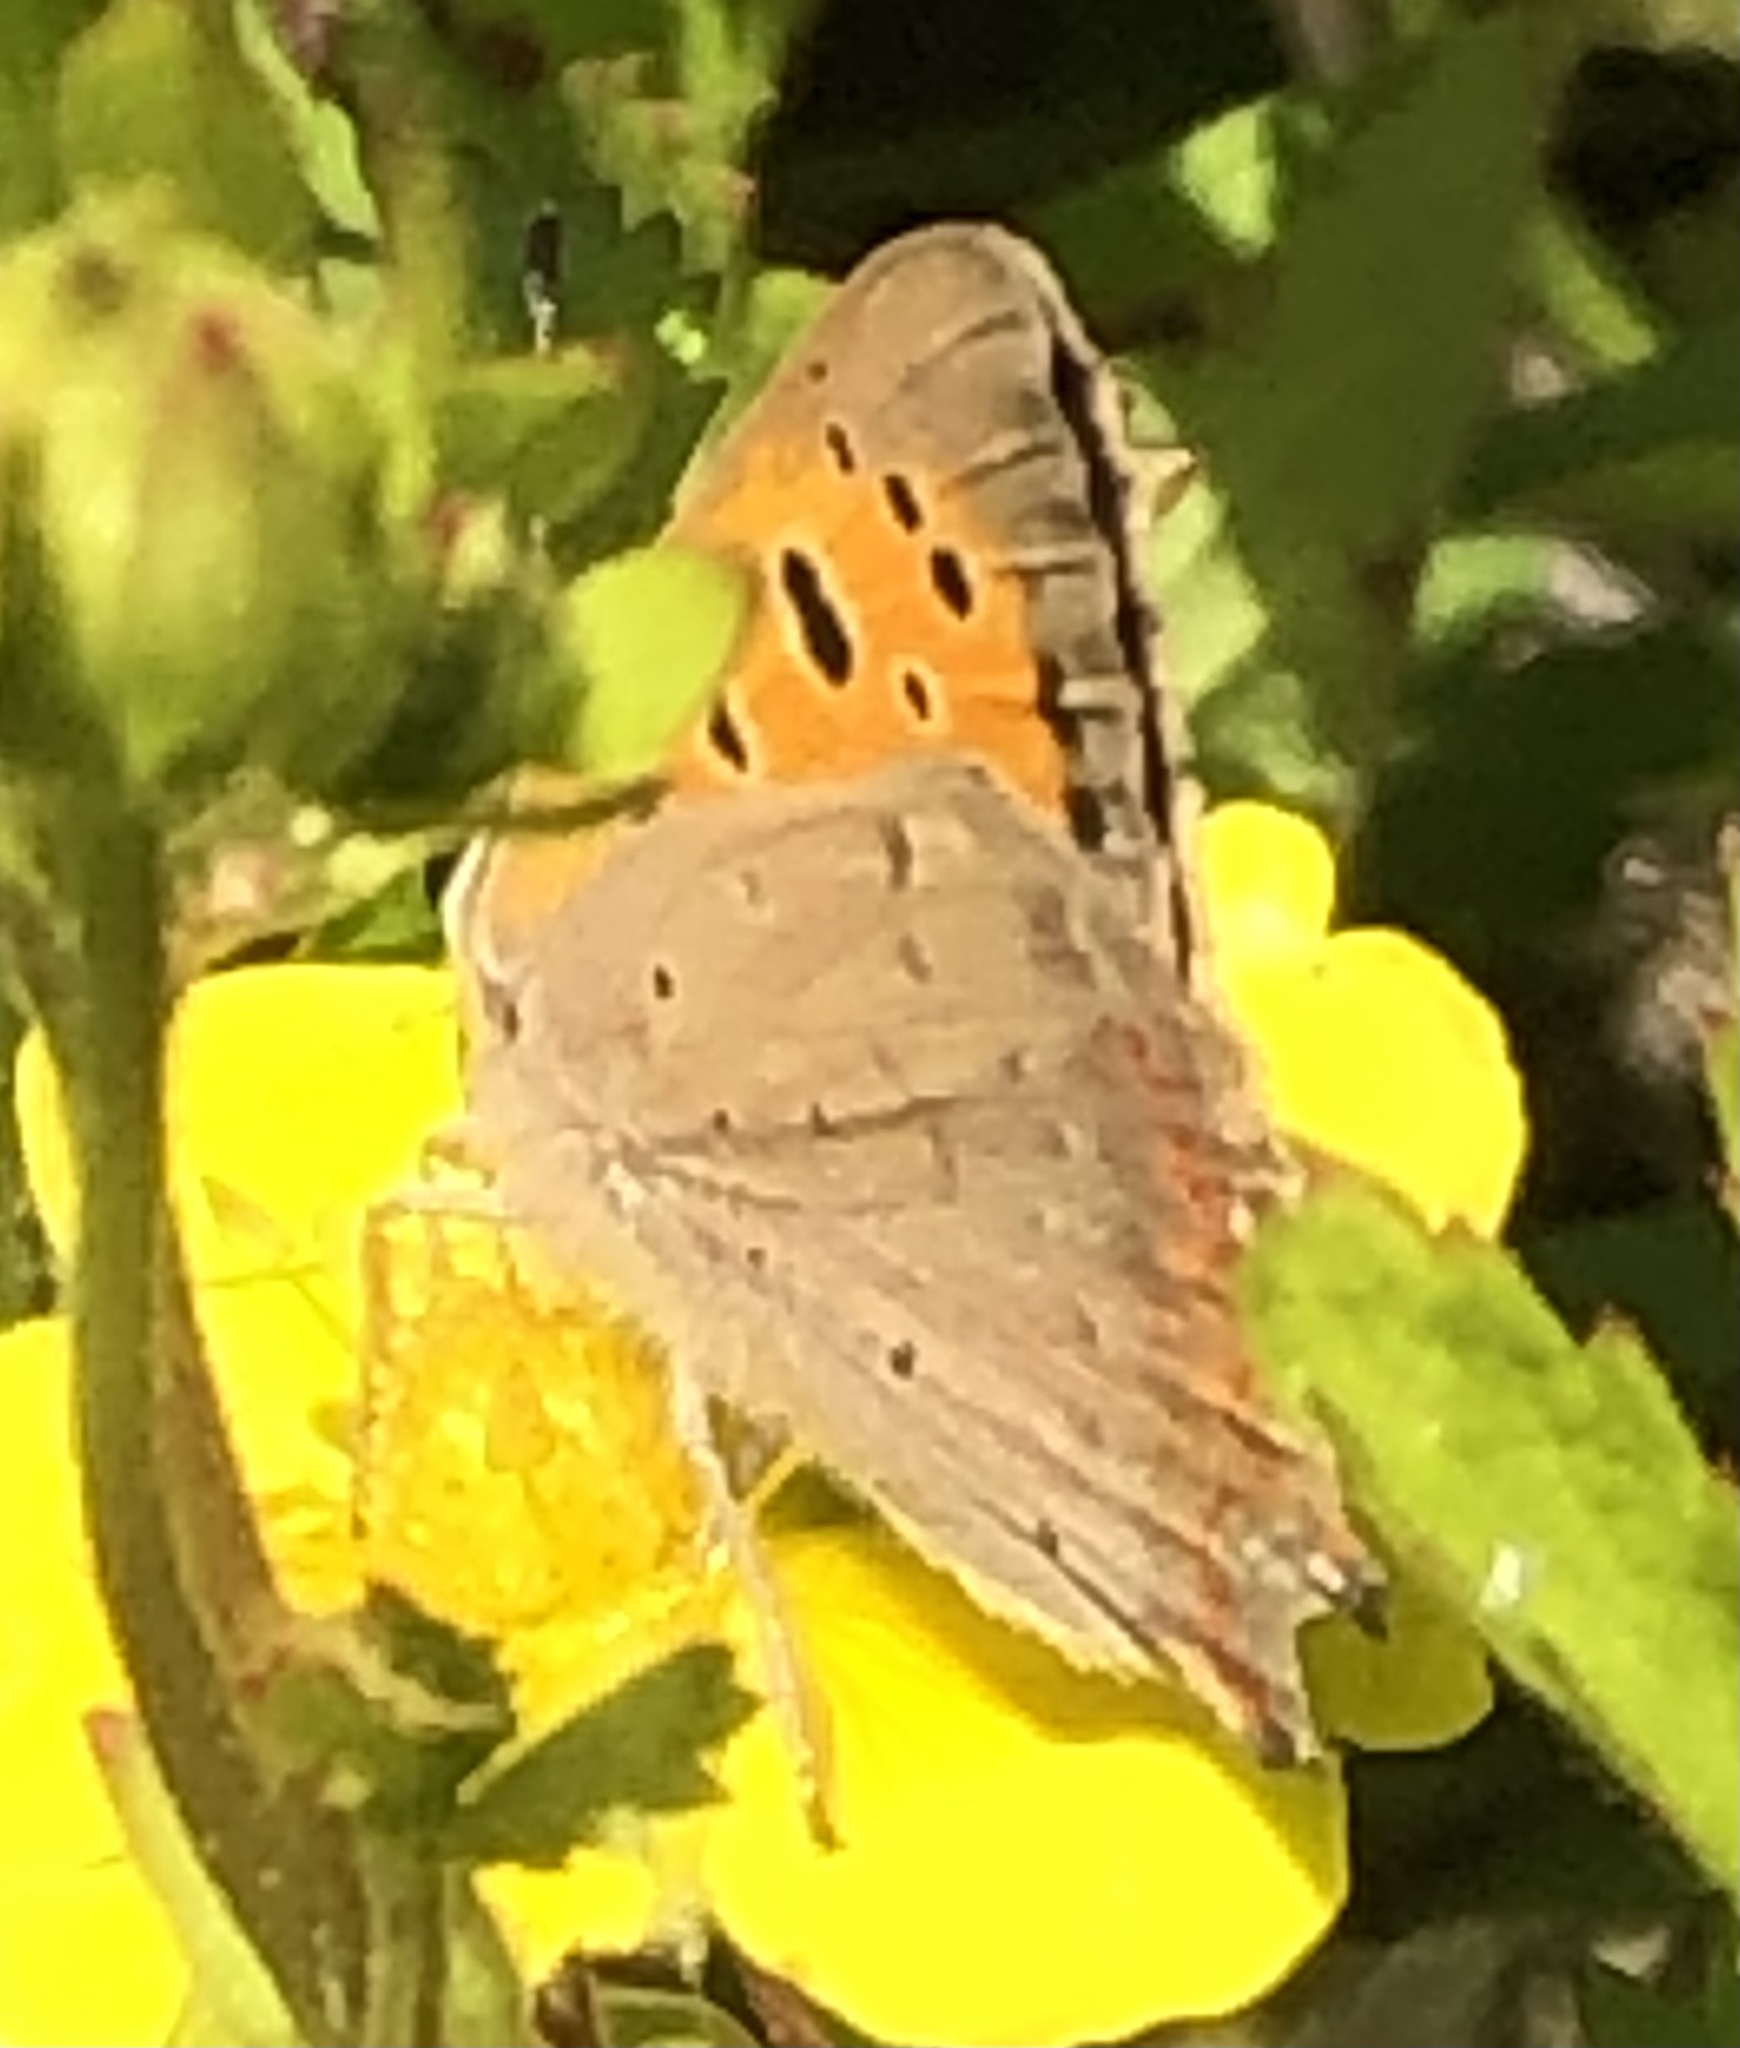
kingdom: Animalia
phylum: Arthropoda
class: Insecta
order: Lepidoptera
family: Lycaenidae
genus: Lycaena
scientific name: Lycaena phlaeas
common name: Small copper
